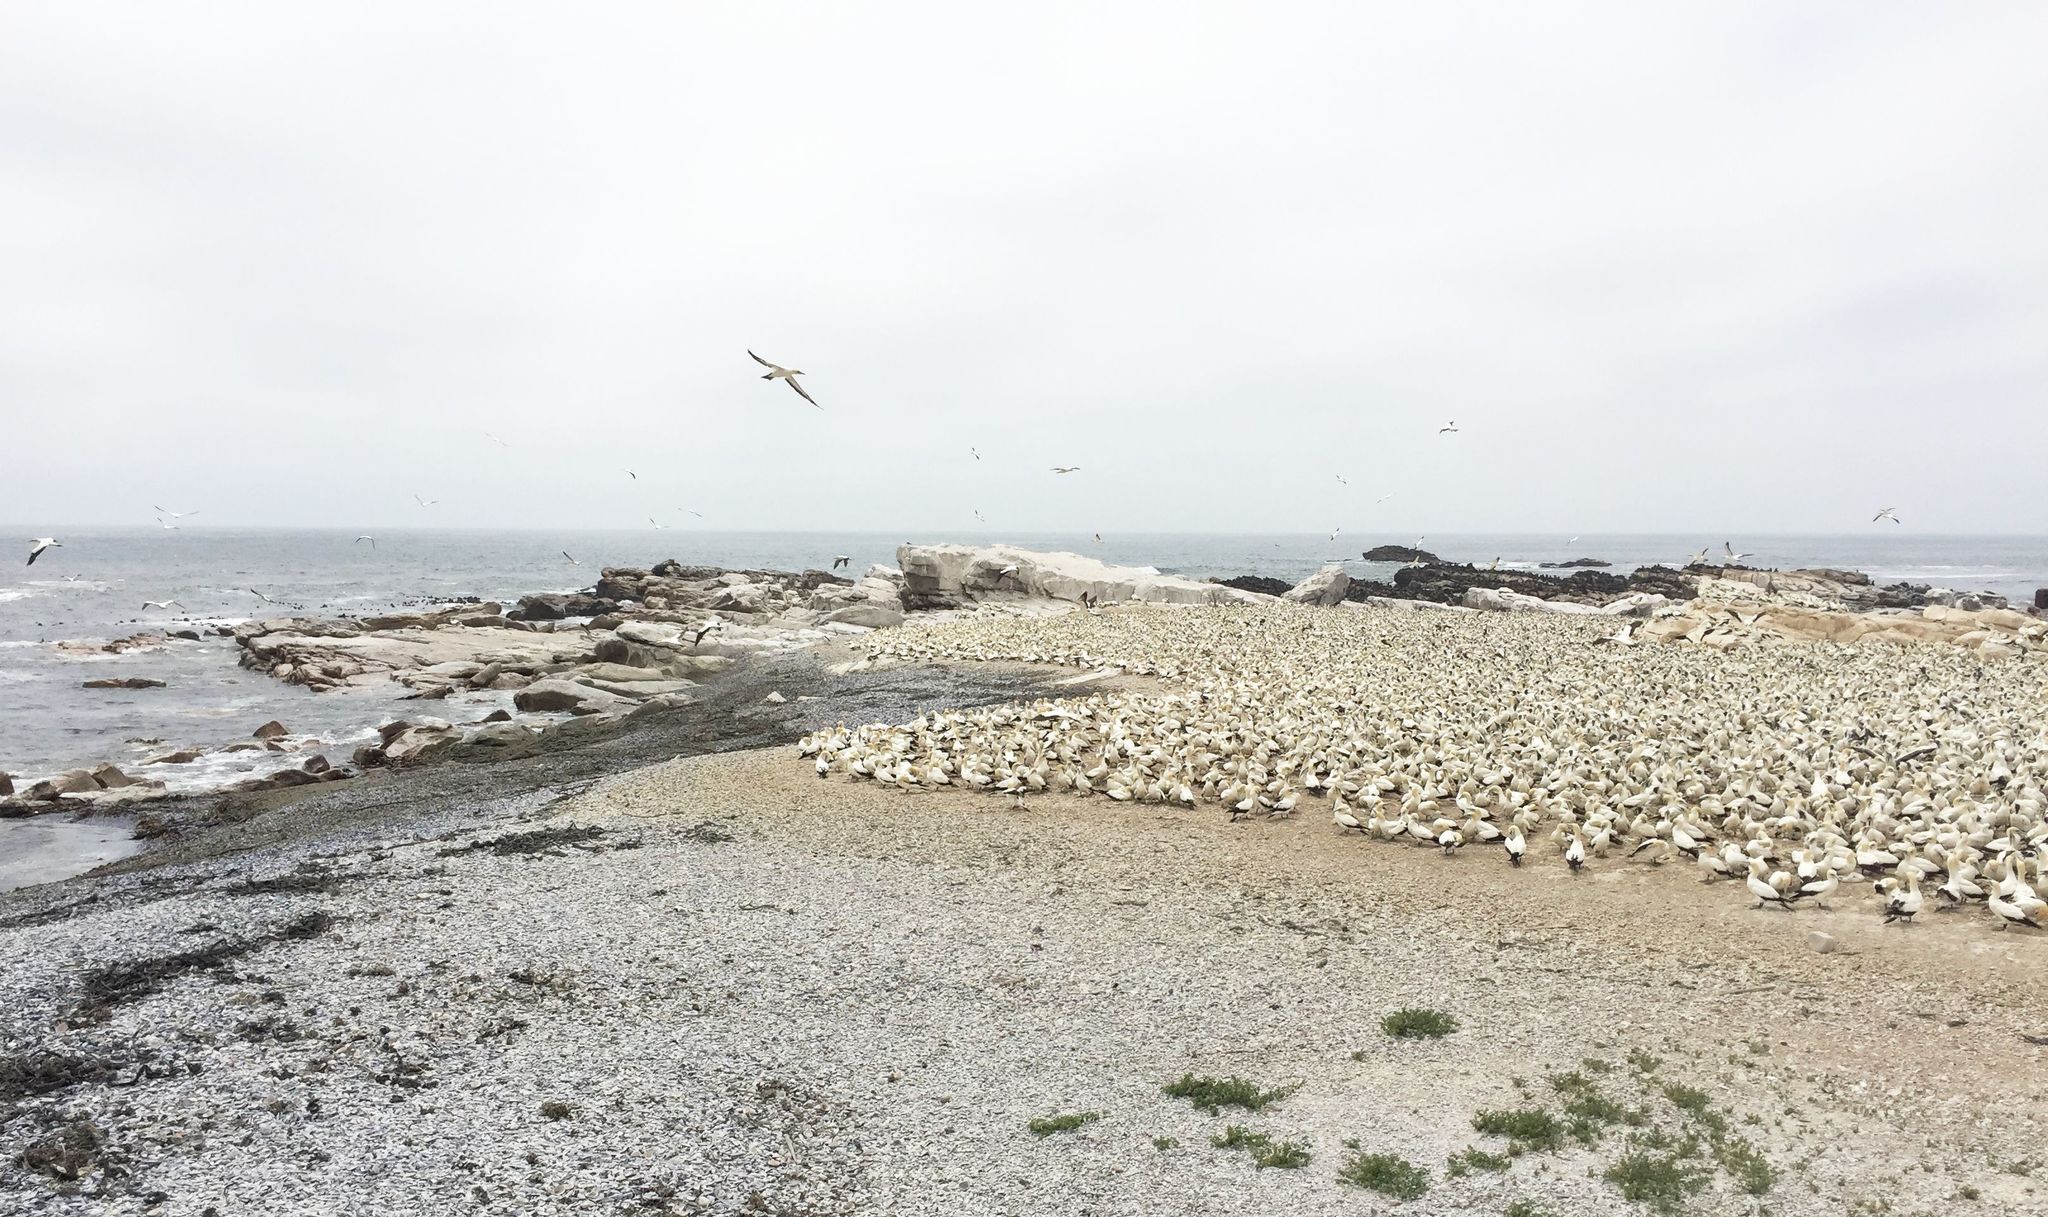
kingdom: Animalia
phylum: Chordata
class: Aves
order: Suliformes
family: Sulidae
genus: Morus
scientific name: Morus capensis
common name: Cape gannet
